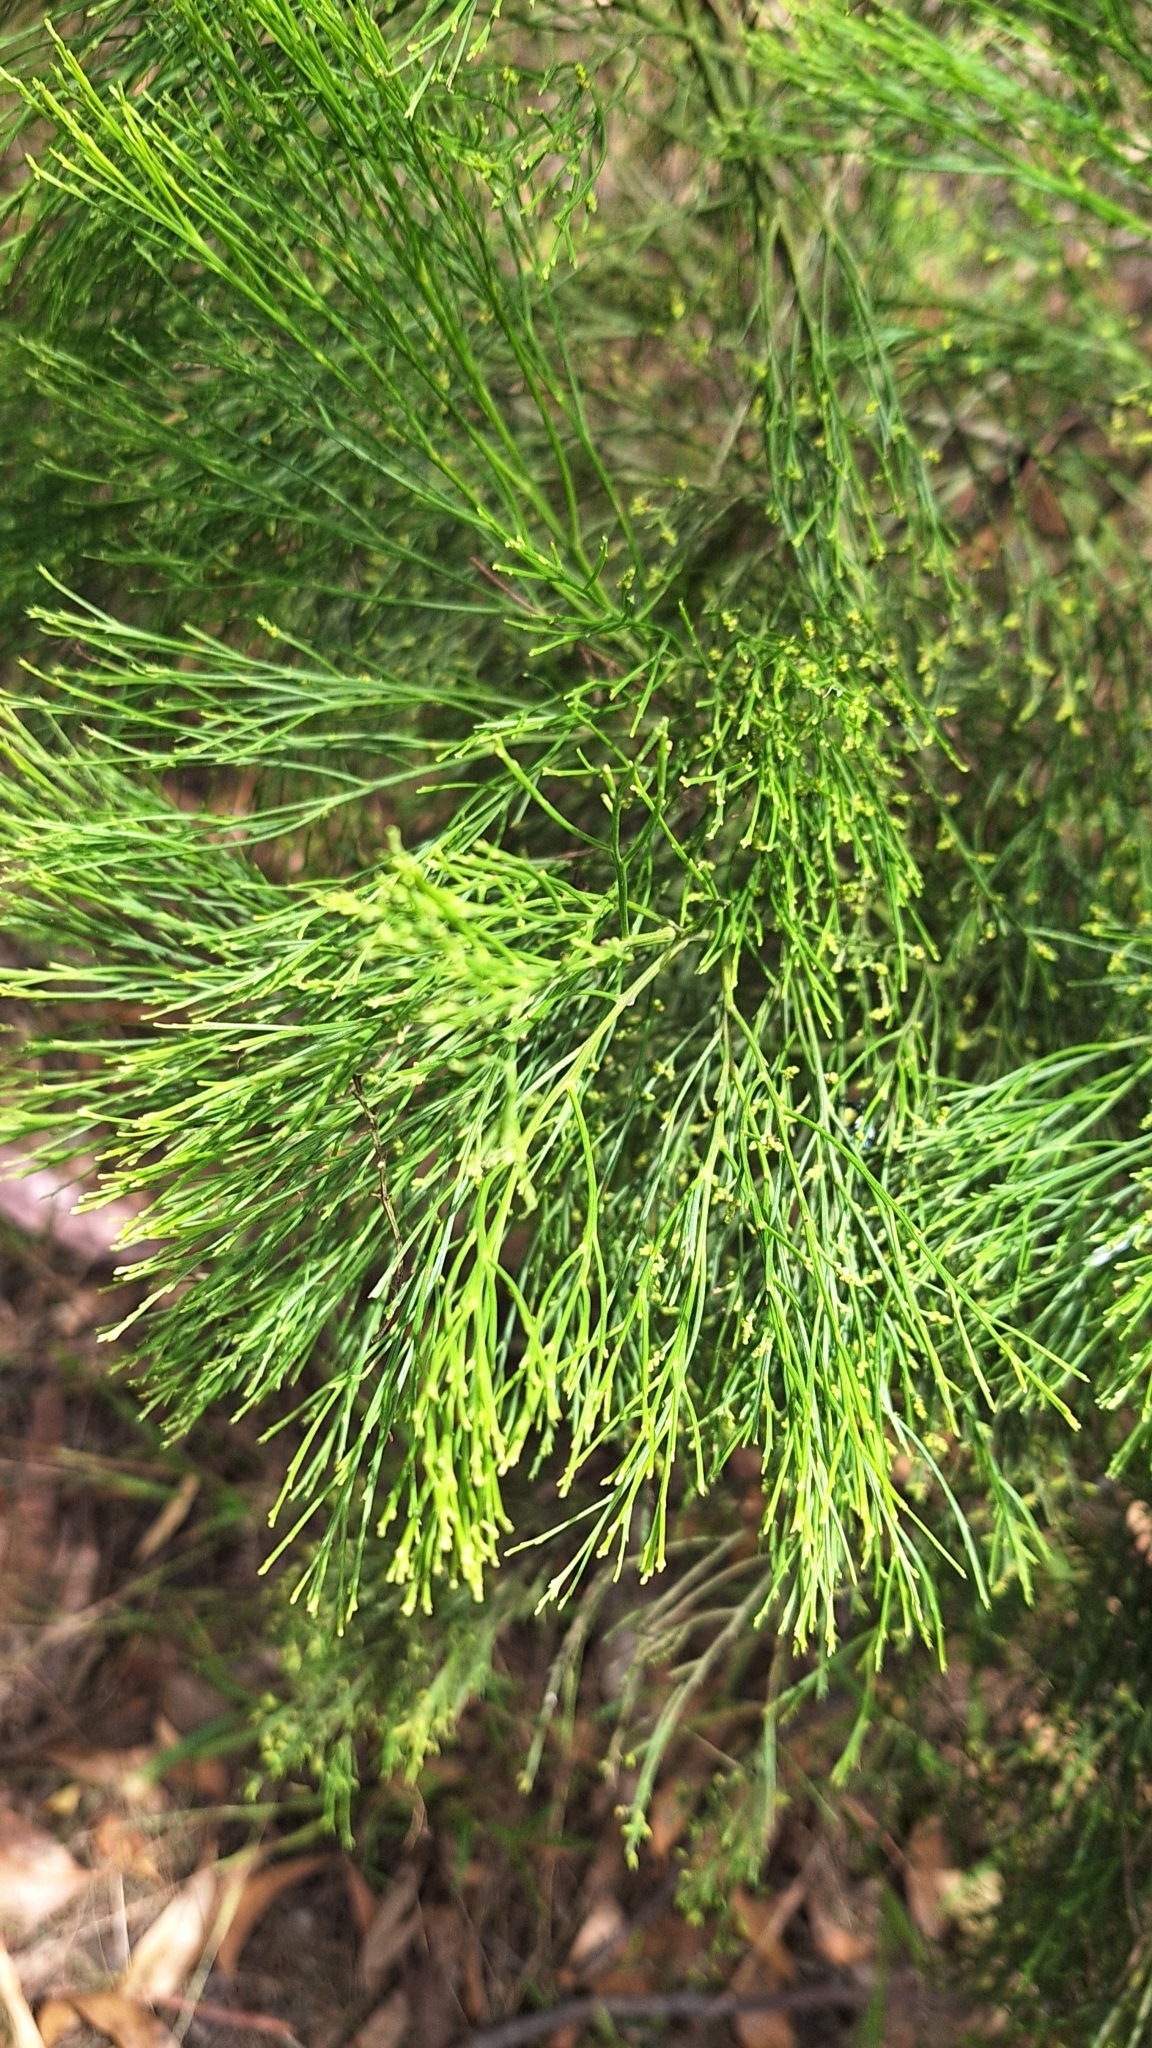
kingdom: Plantae
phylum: Tracheophyta
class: Magnoliopsida
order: Santalales
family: Santalaceae
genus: Exocarpos
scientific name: Exocarpos cupressiformis
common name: Cherry ballart
